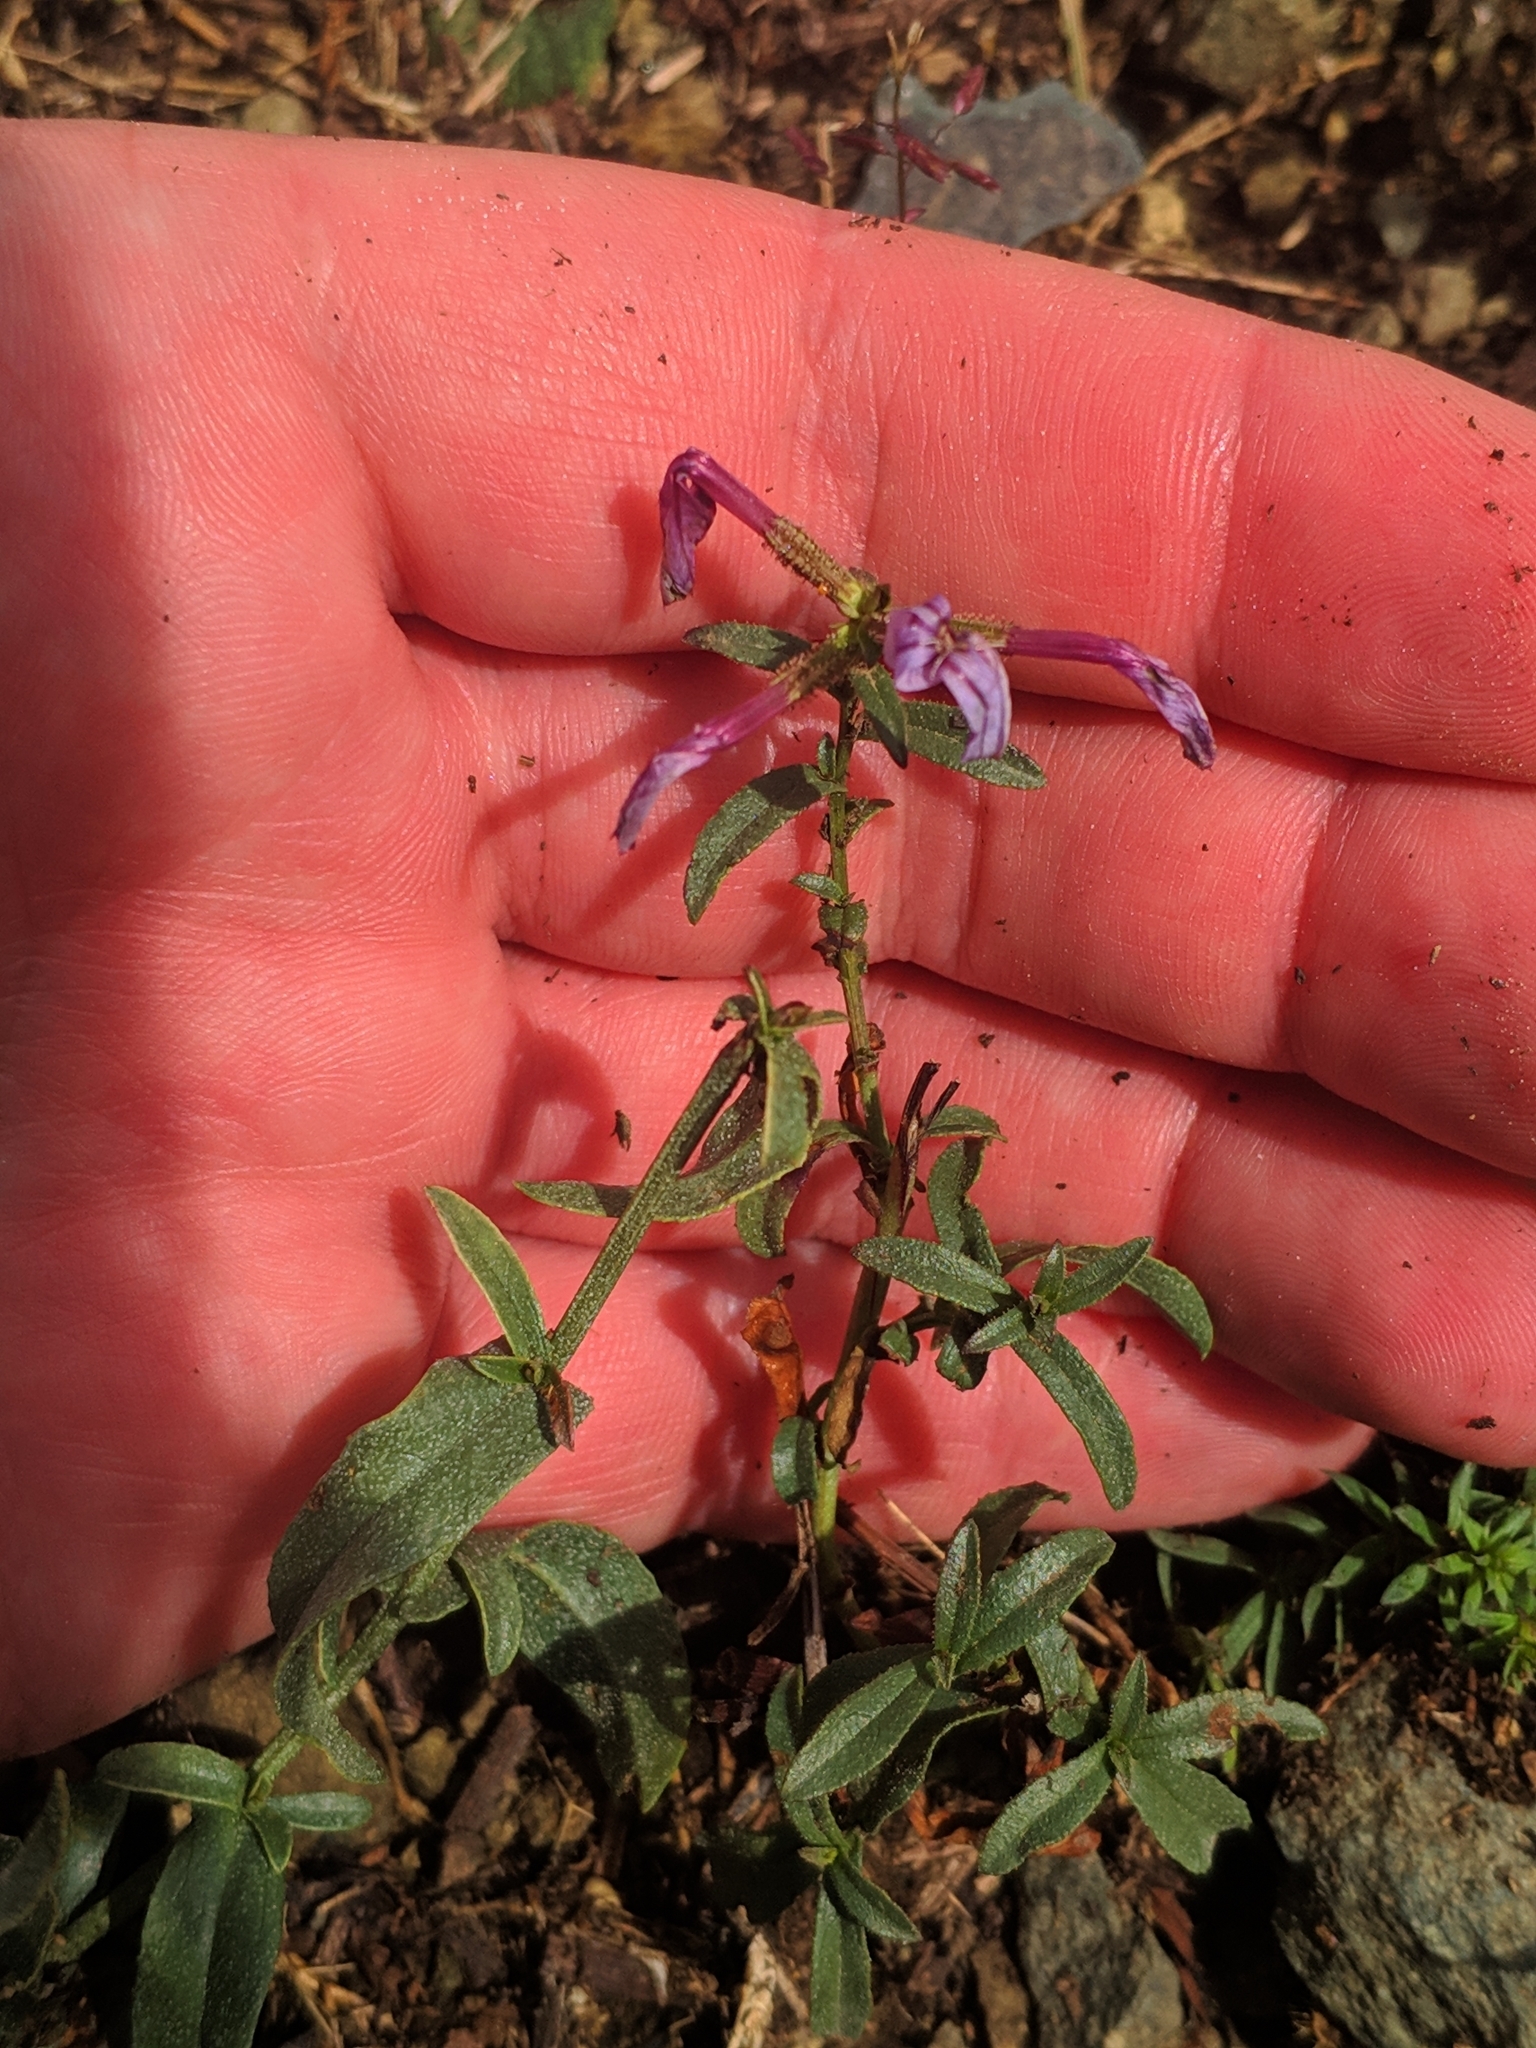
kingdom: Plantae
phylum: Tracheophyta
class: Magnoliopsida
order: Caryophyllales
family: Plumbaginaceae
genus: Plumbago
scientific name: Plumbago europaea
